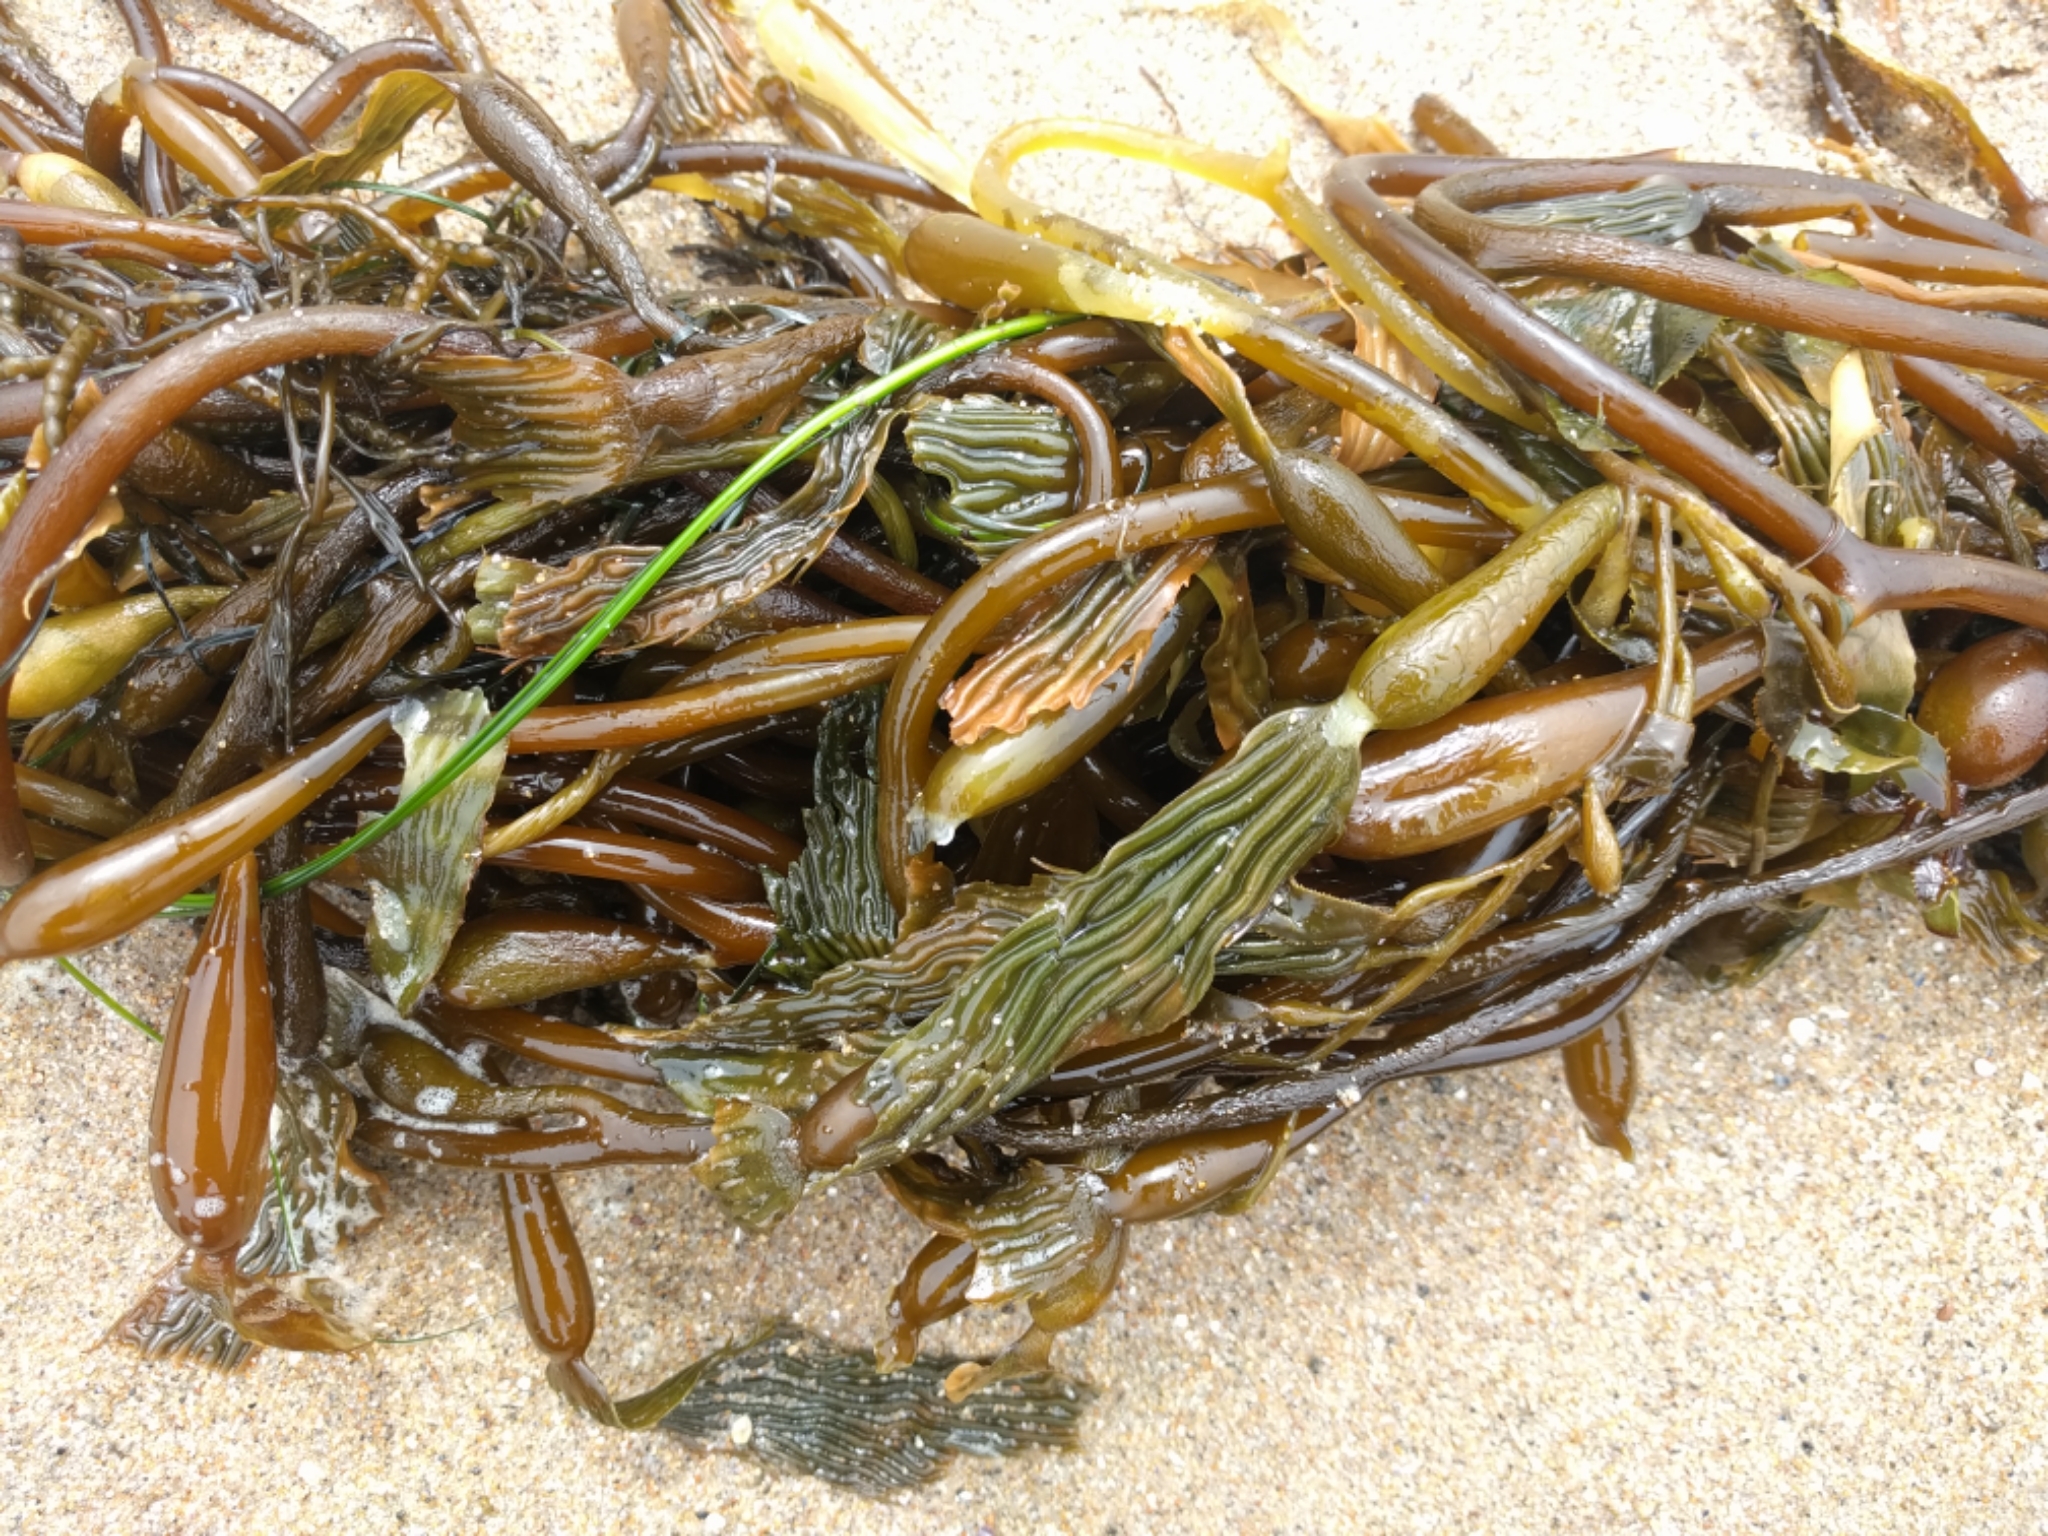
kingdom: Chromista
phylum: Ochrophyta
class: Phaeophyceae
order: Laminariales
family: Laminariaceae
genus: Macrocystis
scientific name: Macrocystis pyrifera
